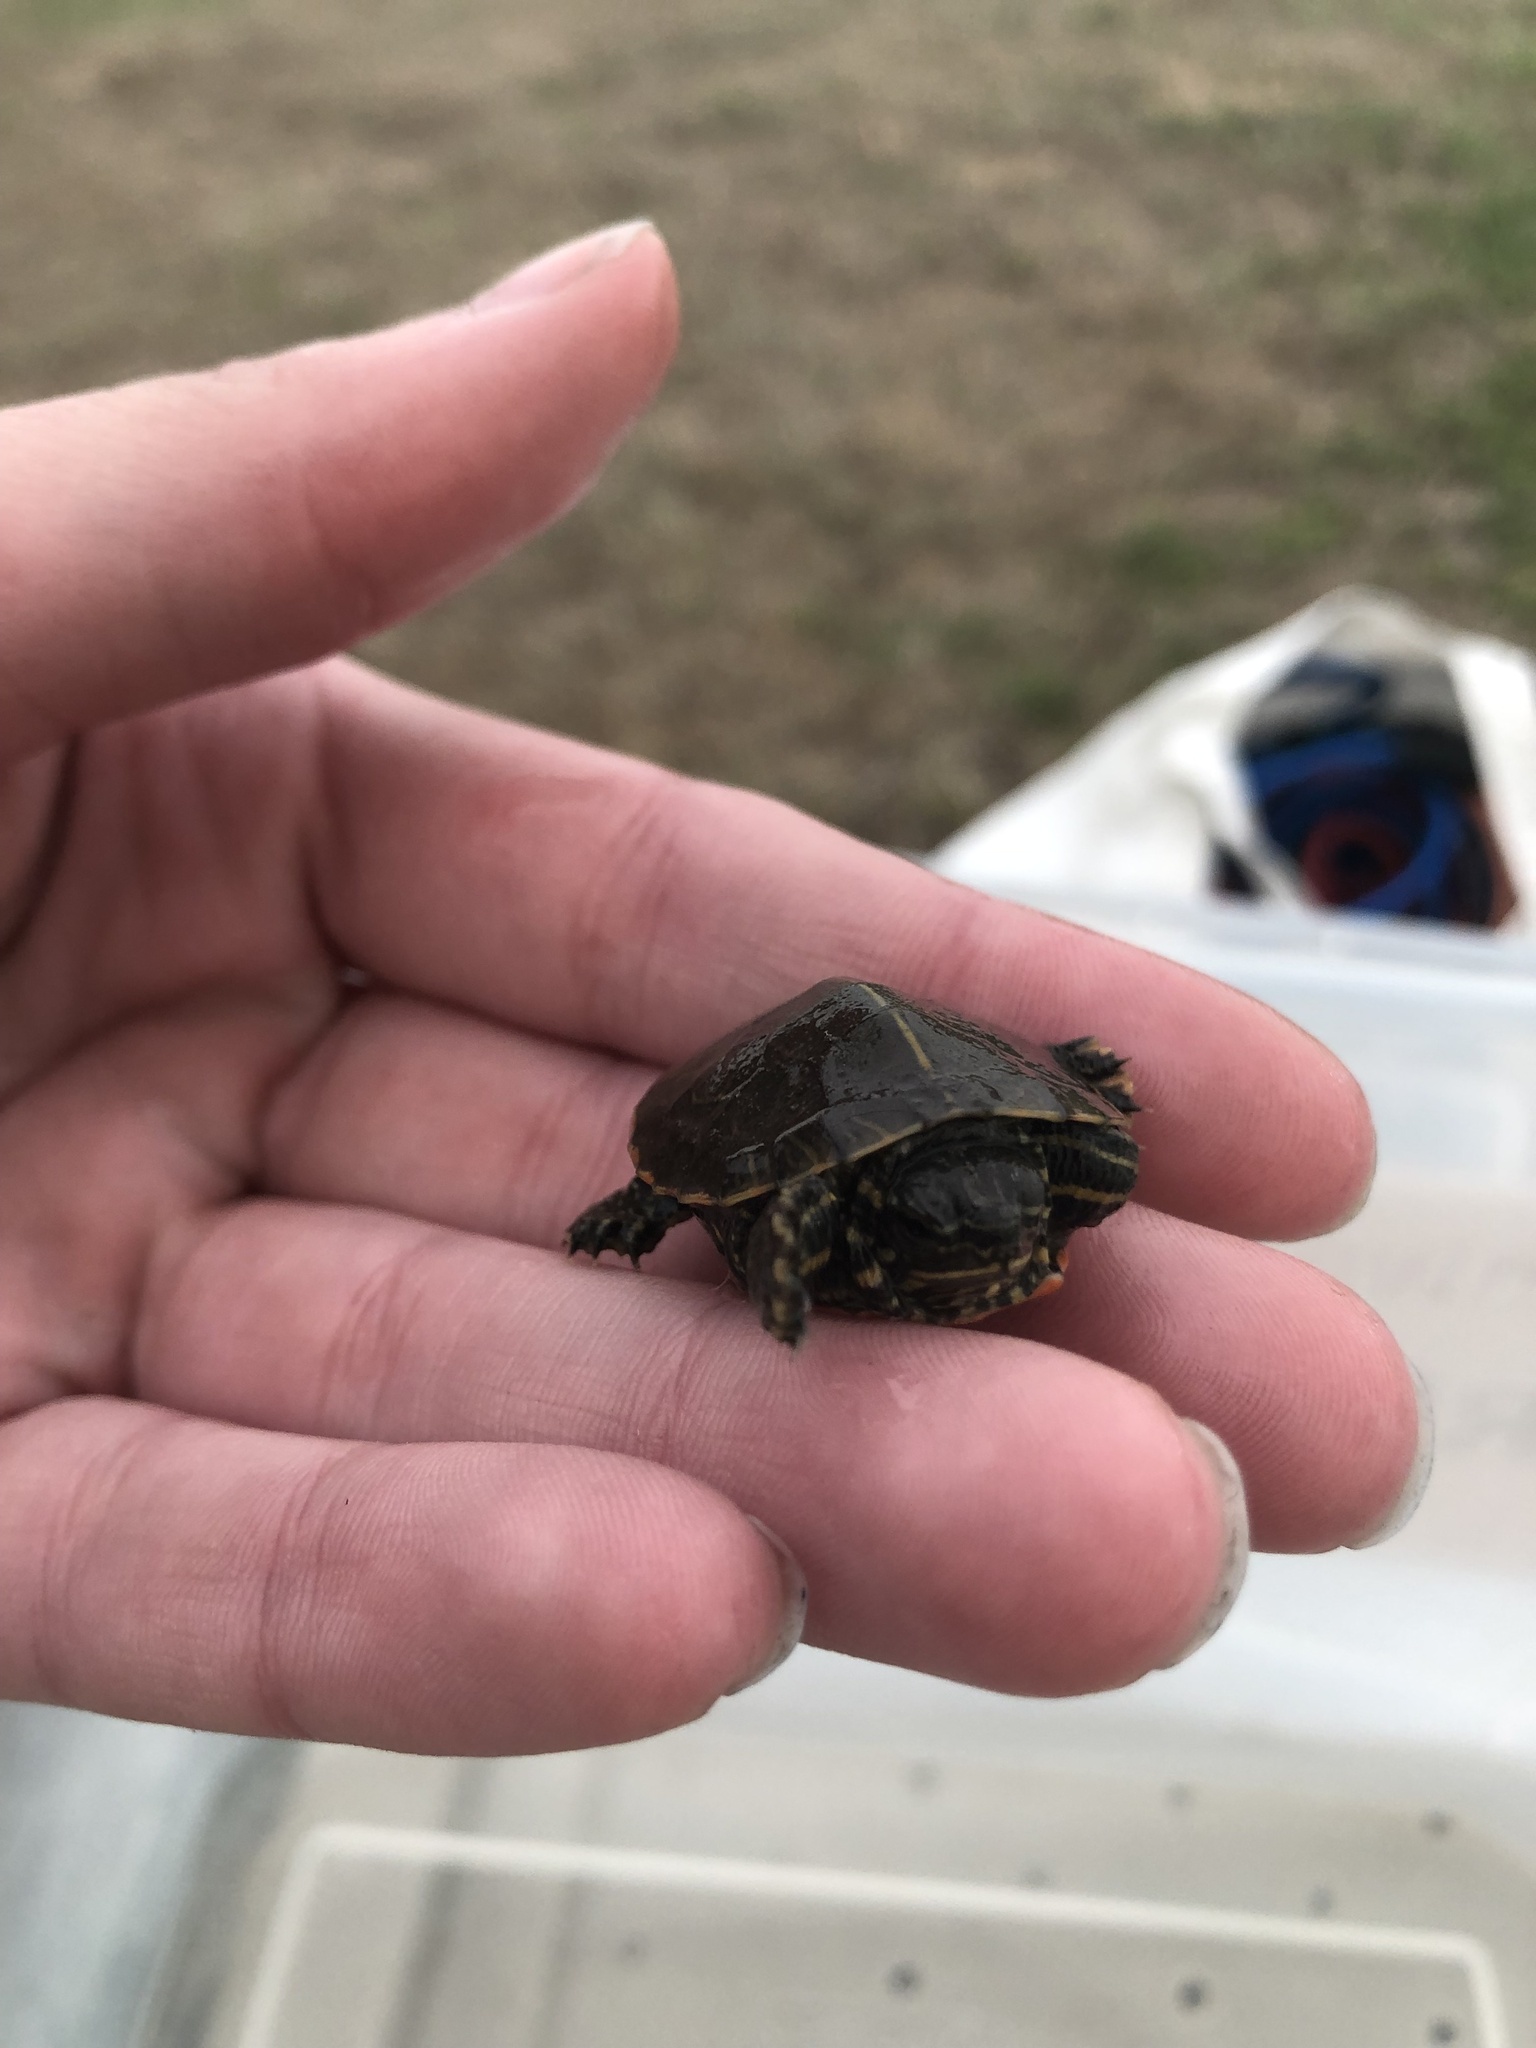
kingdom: Animalia
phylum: Chordata
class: Testudines
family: Emydidae
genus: Chrysemys
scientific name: Chrysemys picta
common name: Painted turtle
